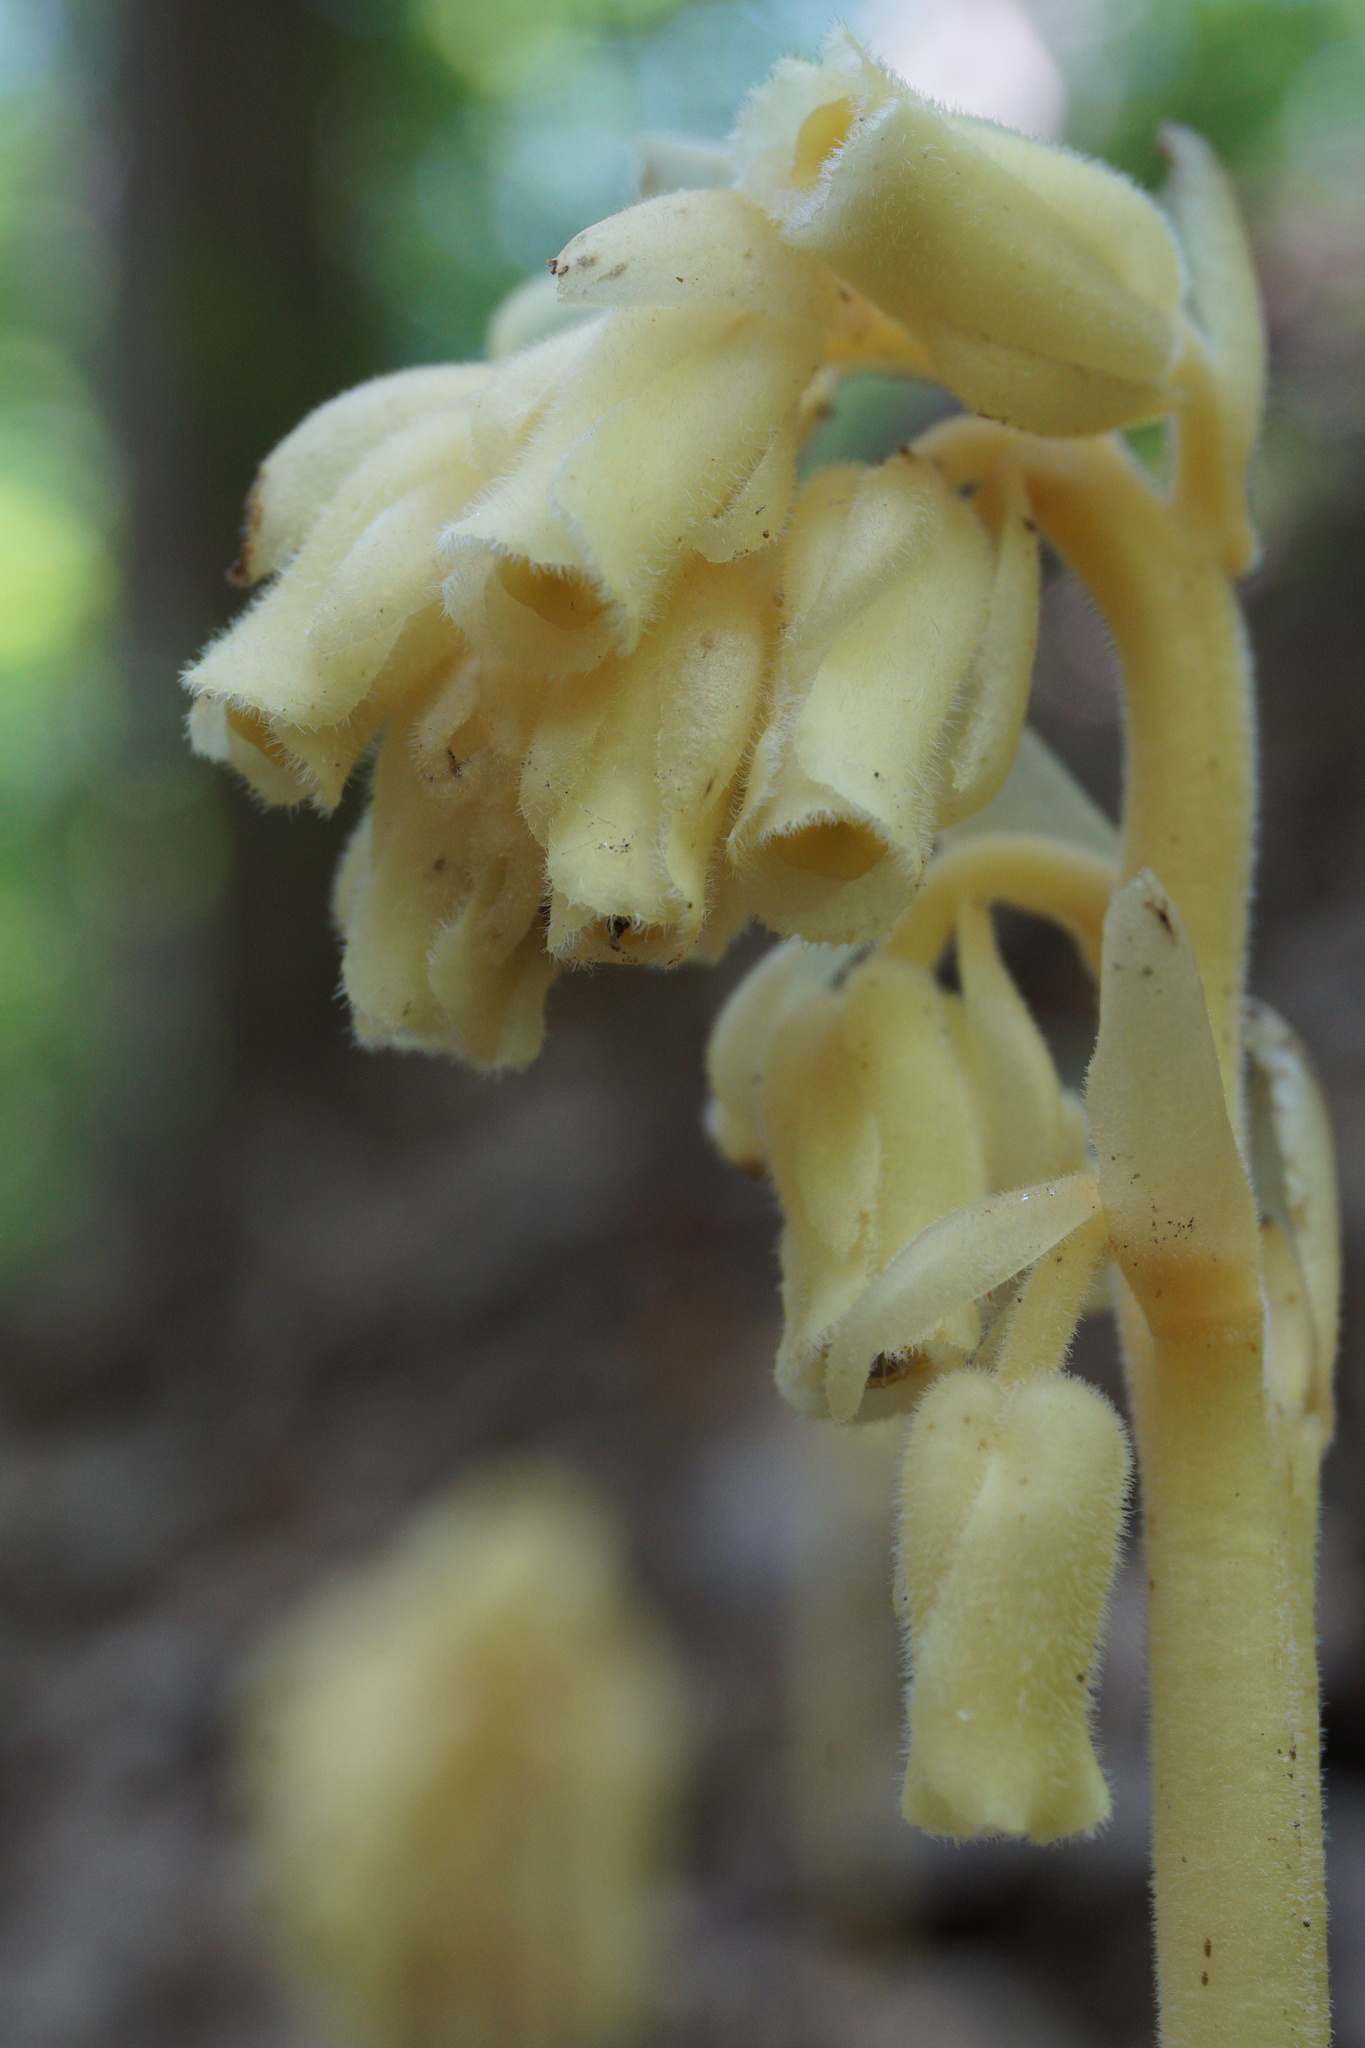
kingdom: Plantae
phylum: Tracheophyta
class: Magnoliopsida
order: Ericales
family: Ericaceae
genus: Hypopitys
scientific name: Hypopitys monotropa
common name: Yellow bird's-nest
